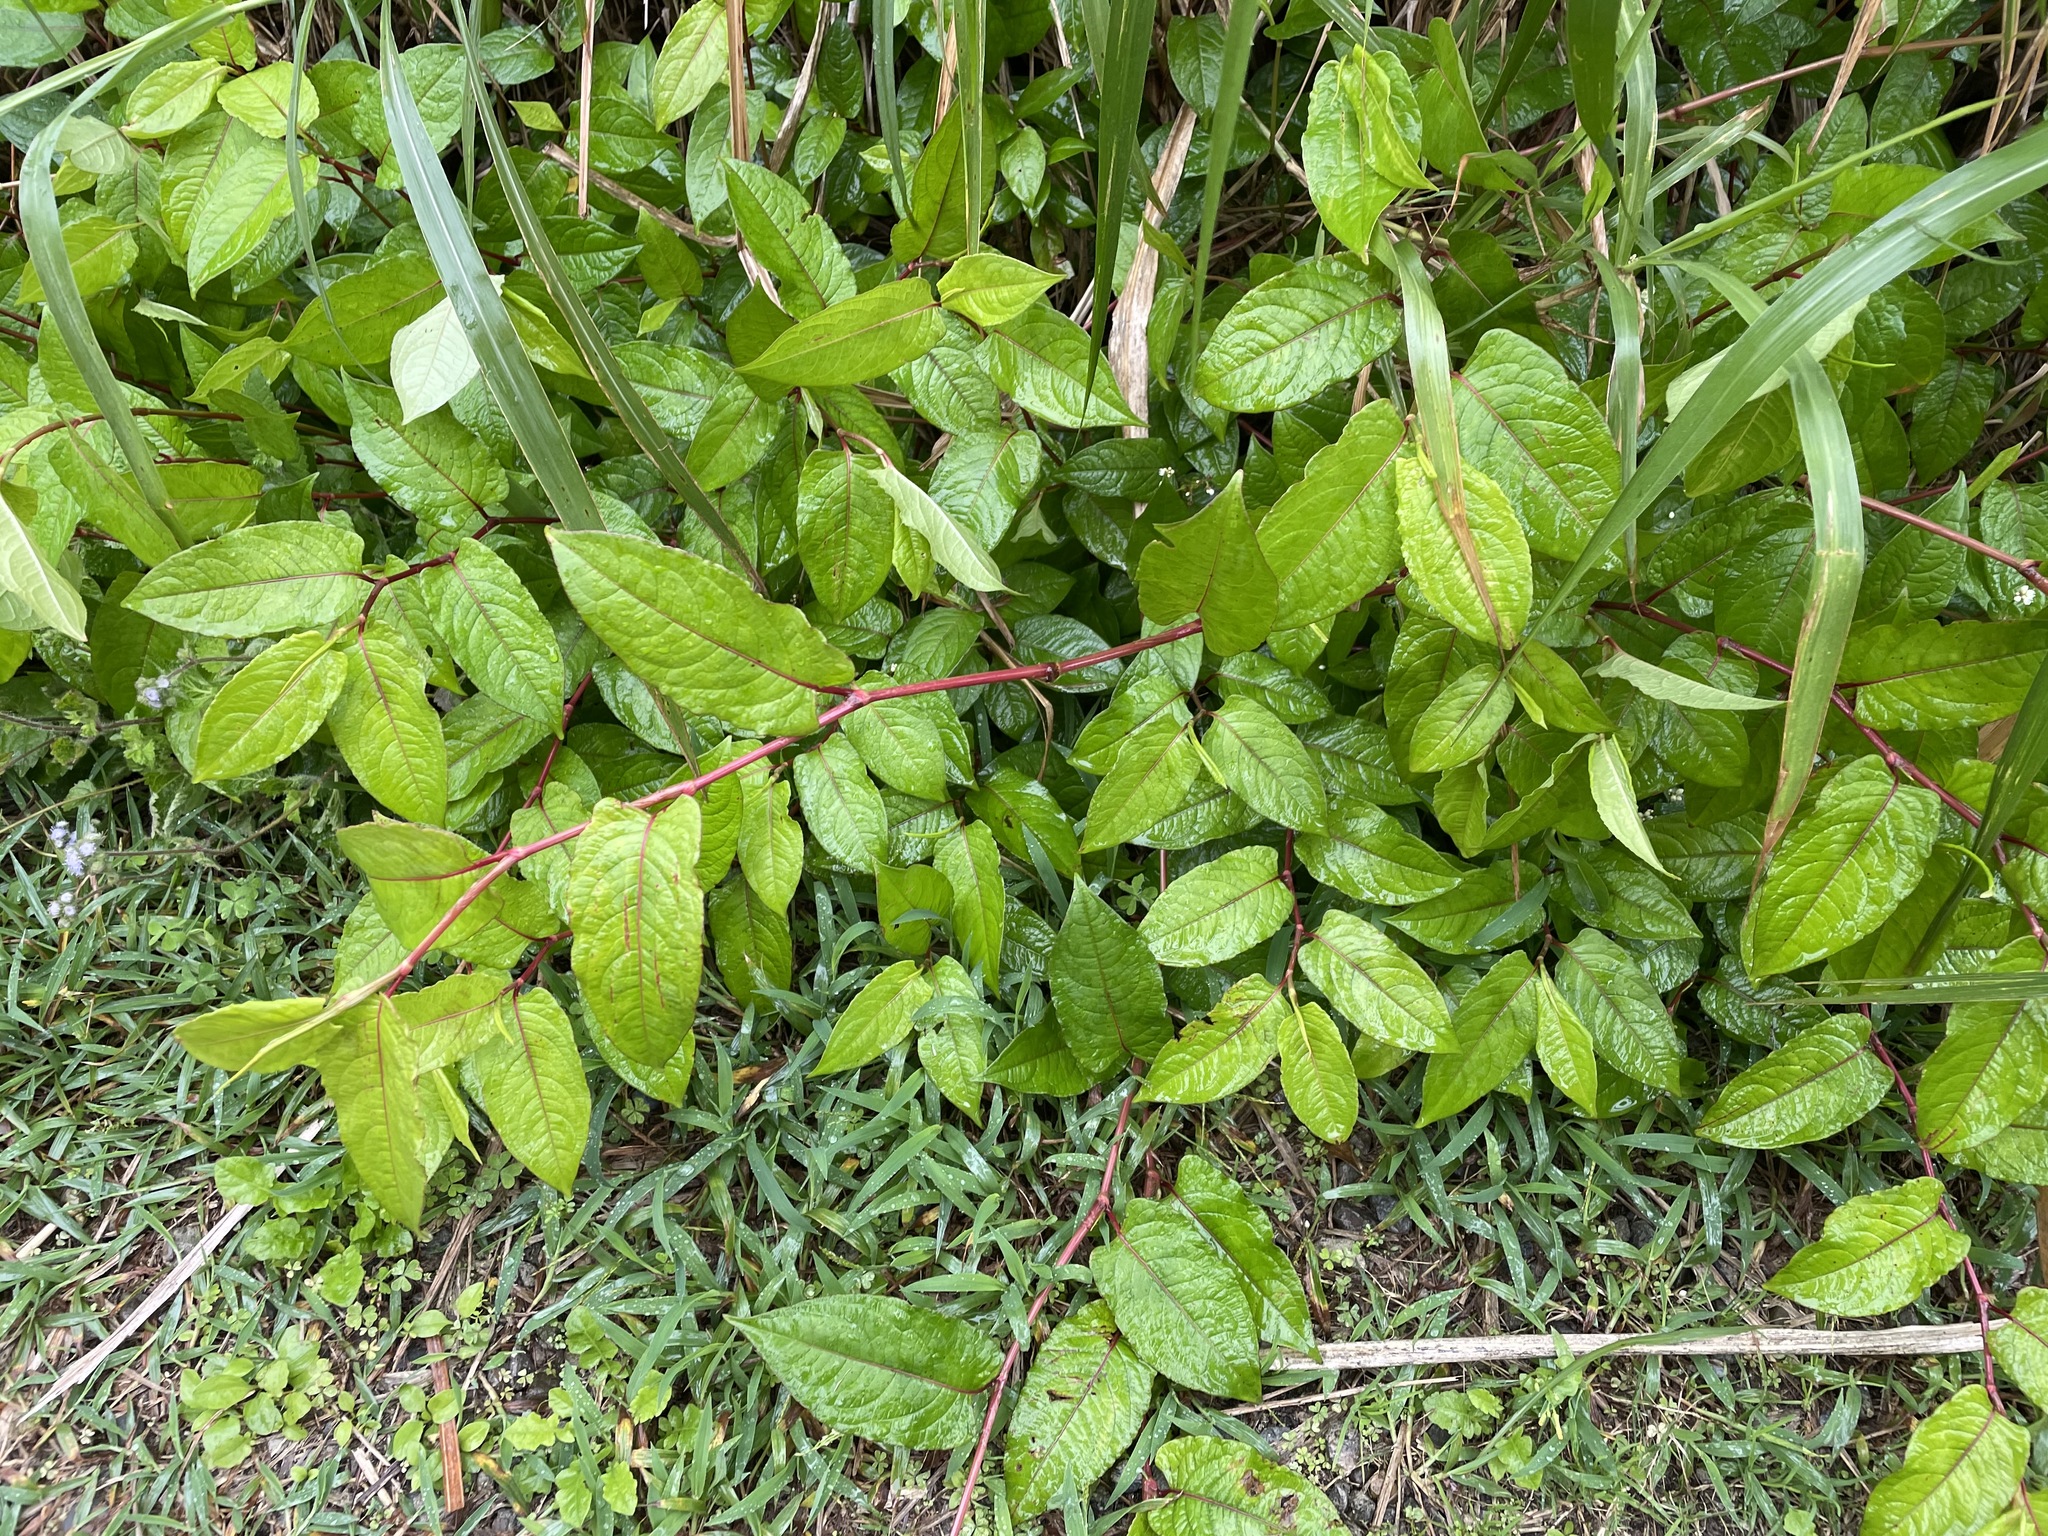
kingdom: Plantae
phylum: Tracheophyta
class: Magnoliopsida
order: Caryophyllales
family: Polygonaceae
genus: Persicaria
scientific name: Persicaria chinensis
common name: Chinese knotweed
